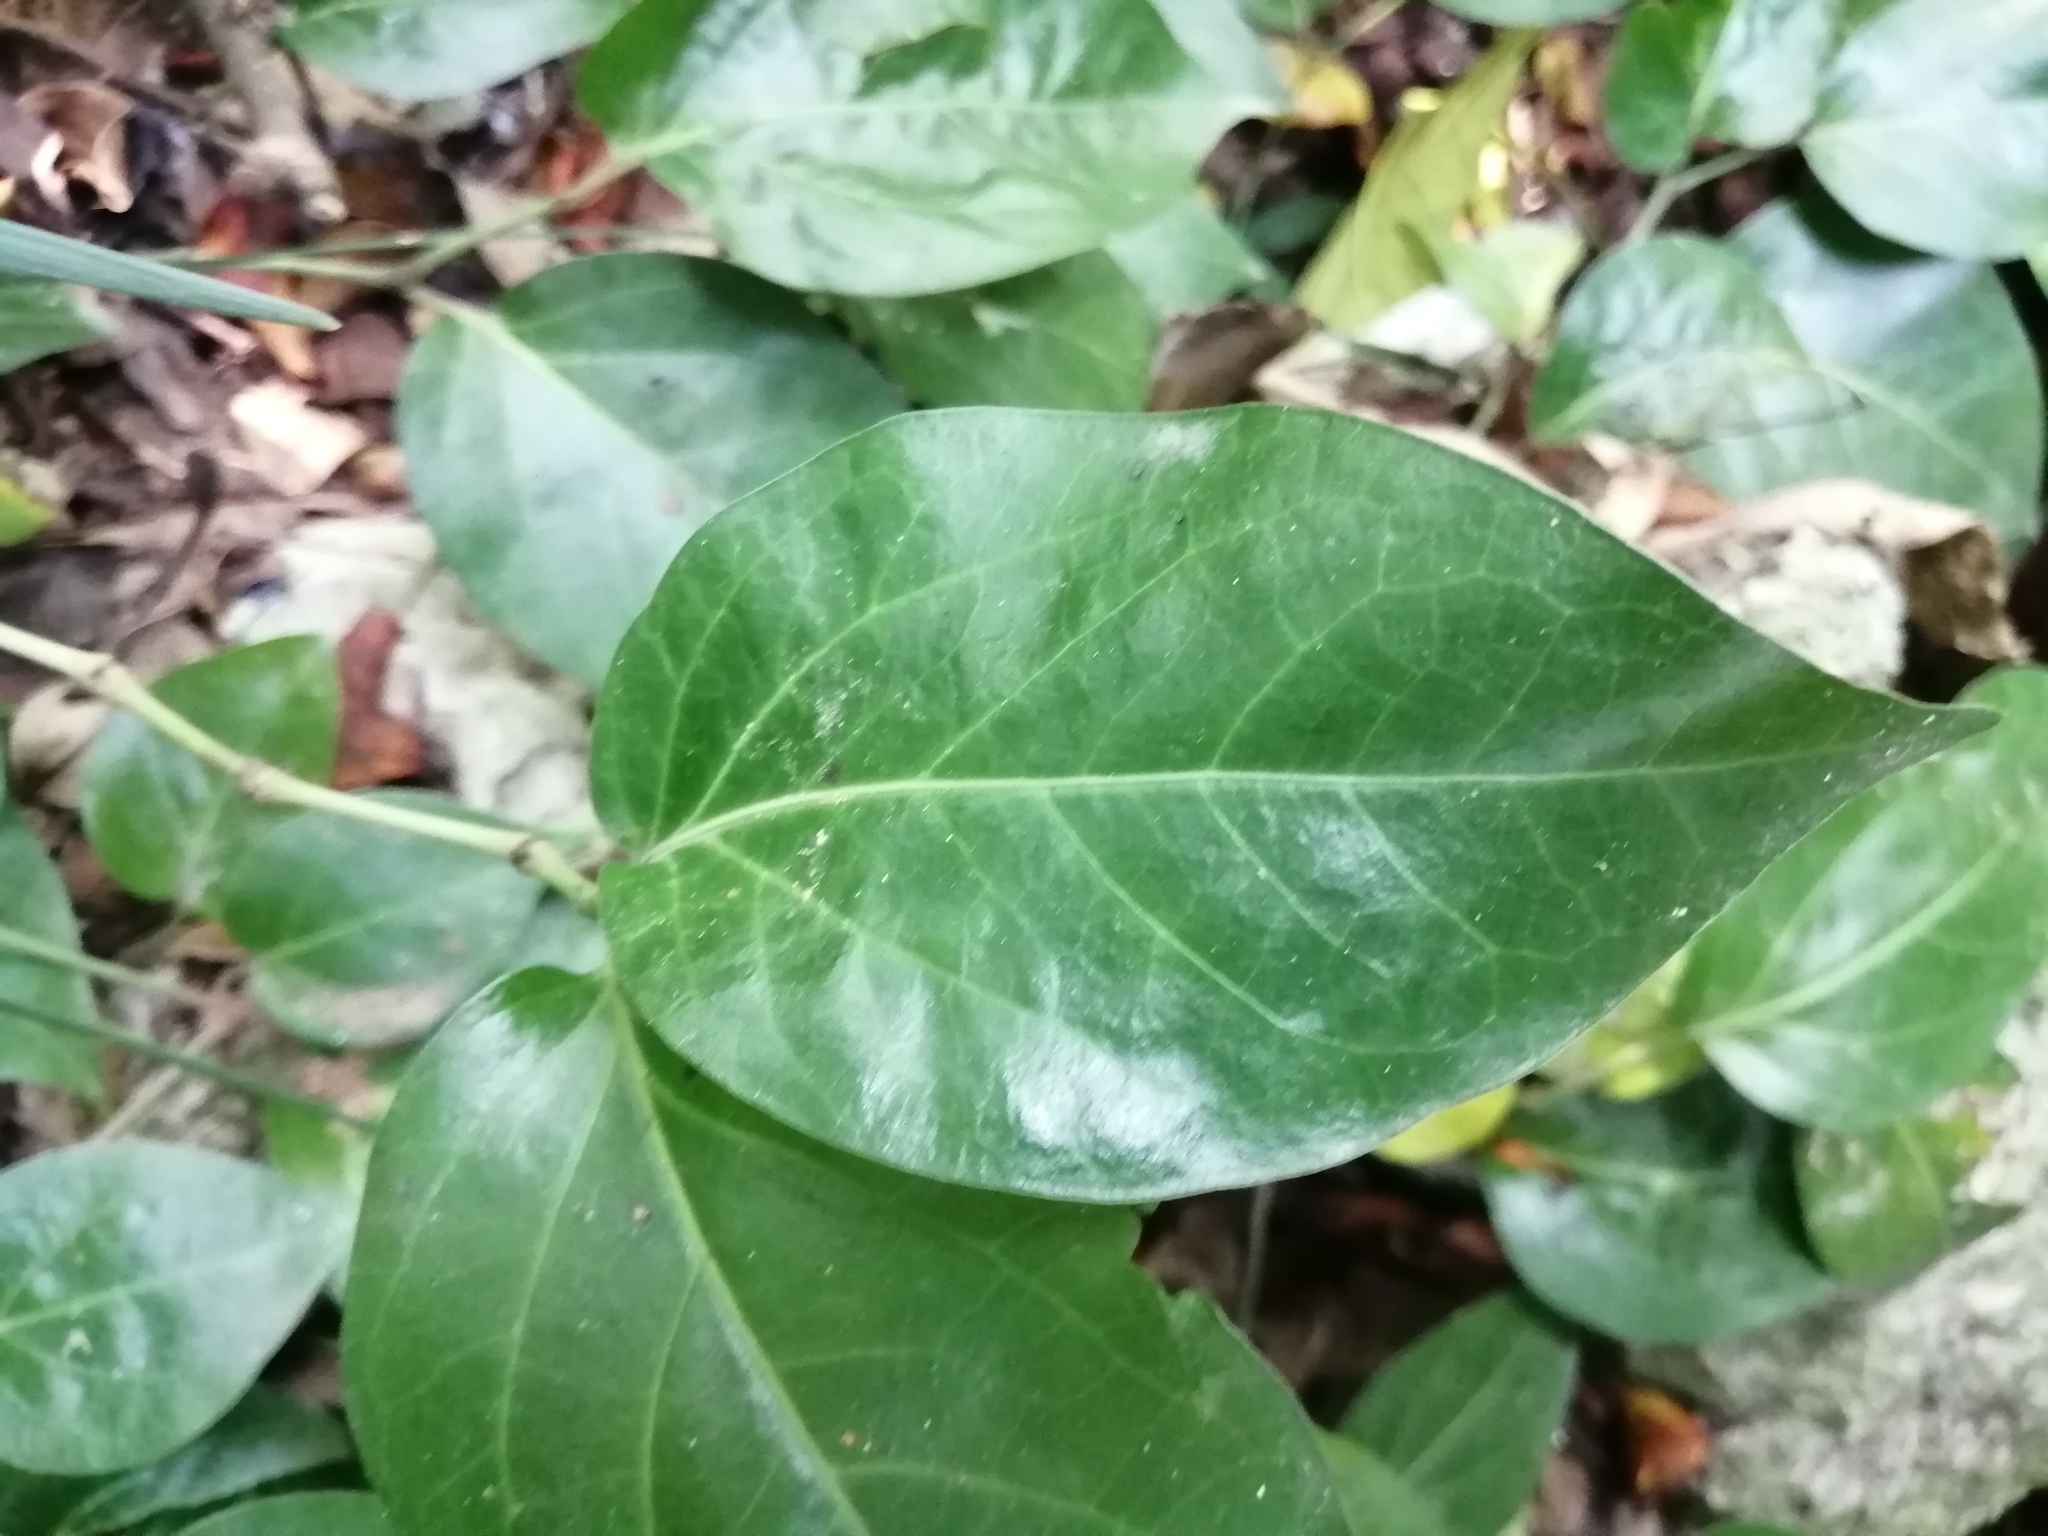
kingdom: Plantae
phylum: Tracheophyta
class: Magnoliopsida
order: Piperales
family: Piperaceae
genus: Piper
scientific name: Piper kawakamii
